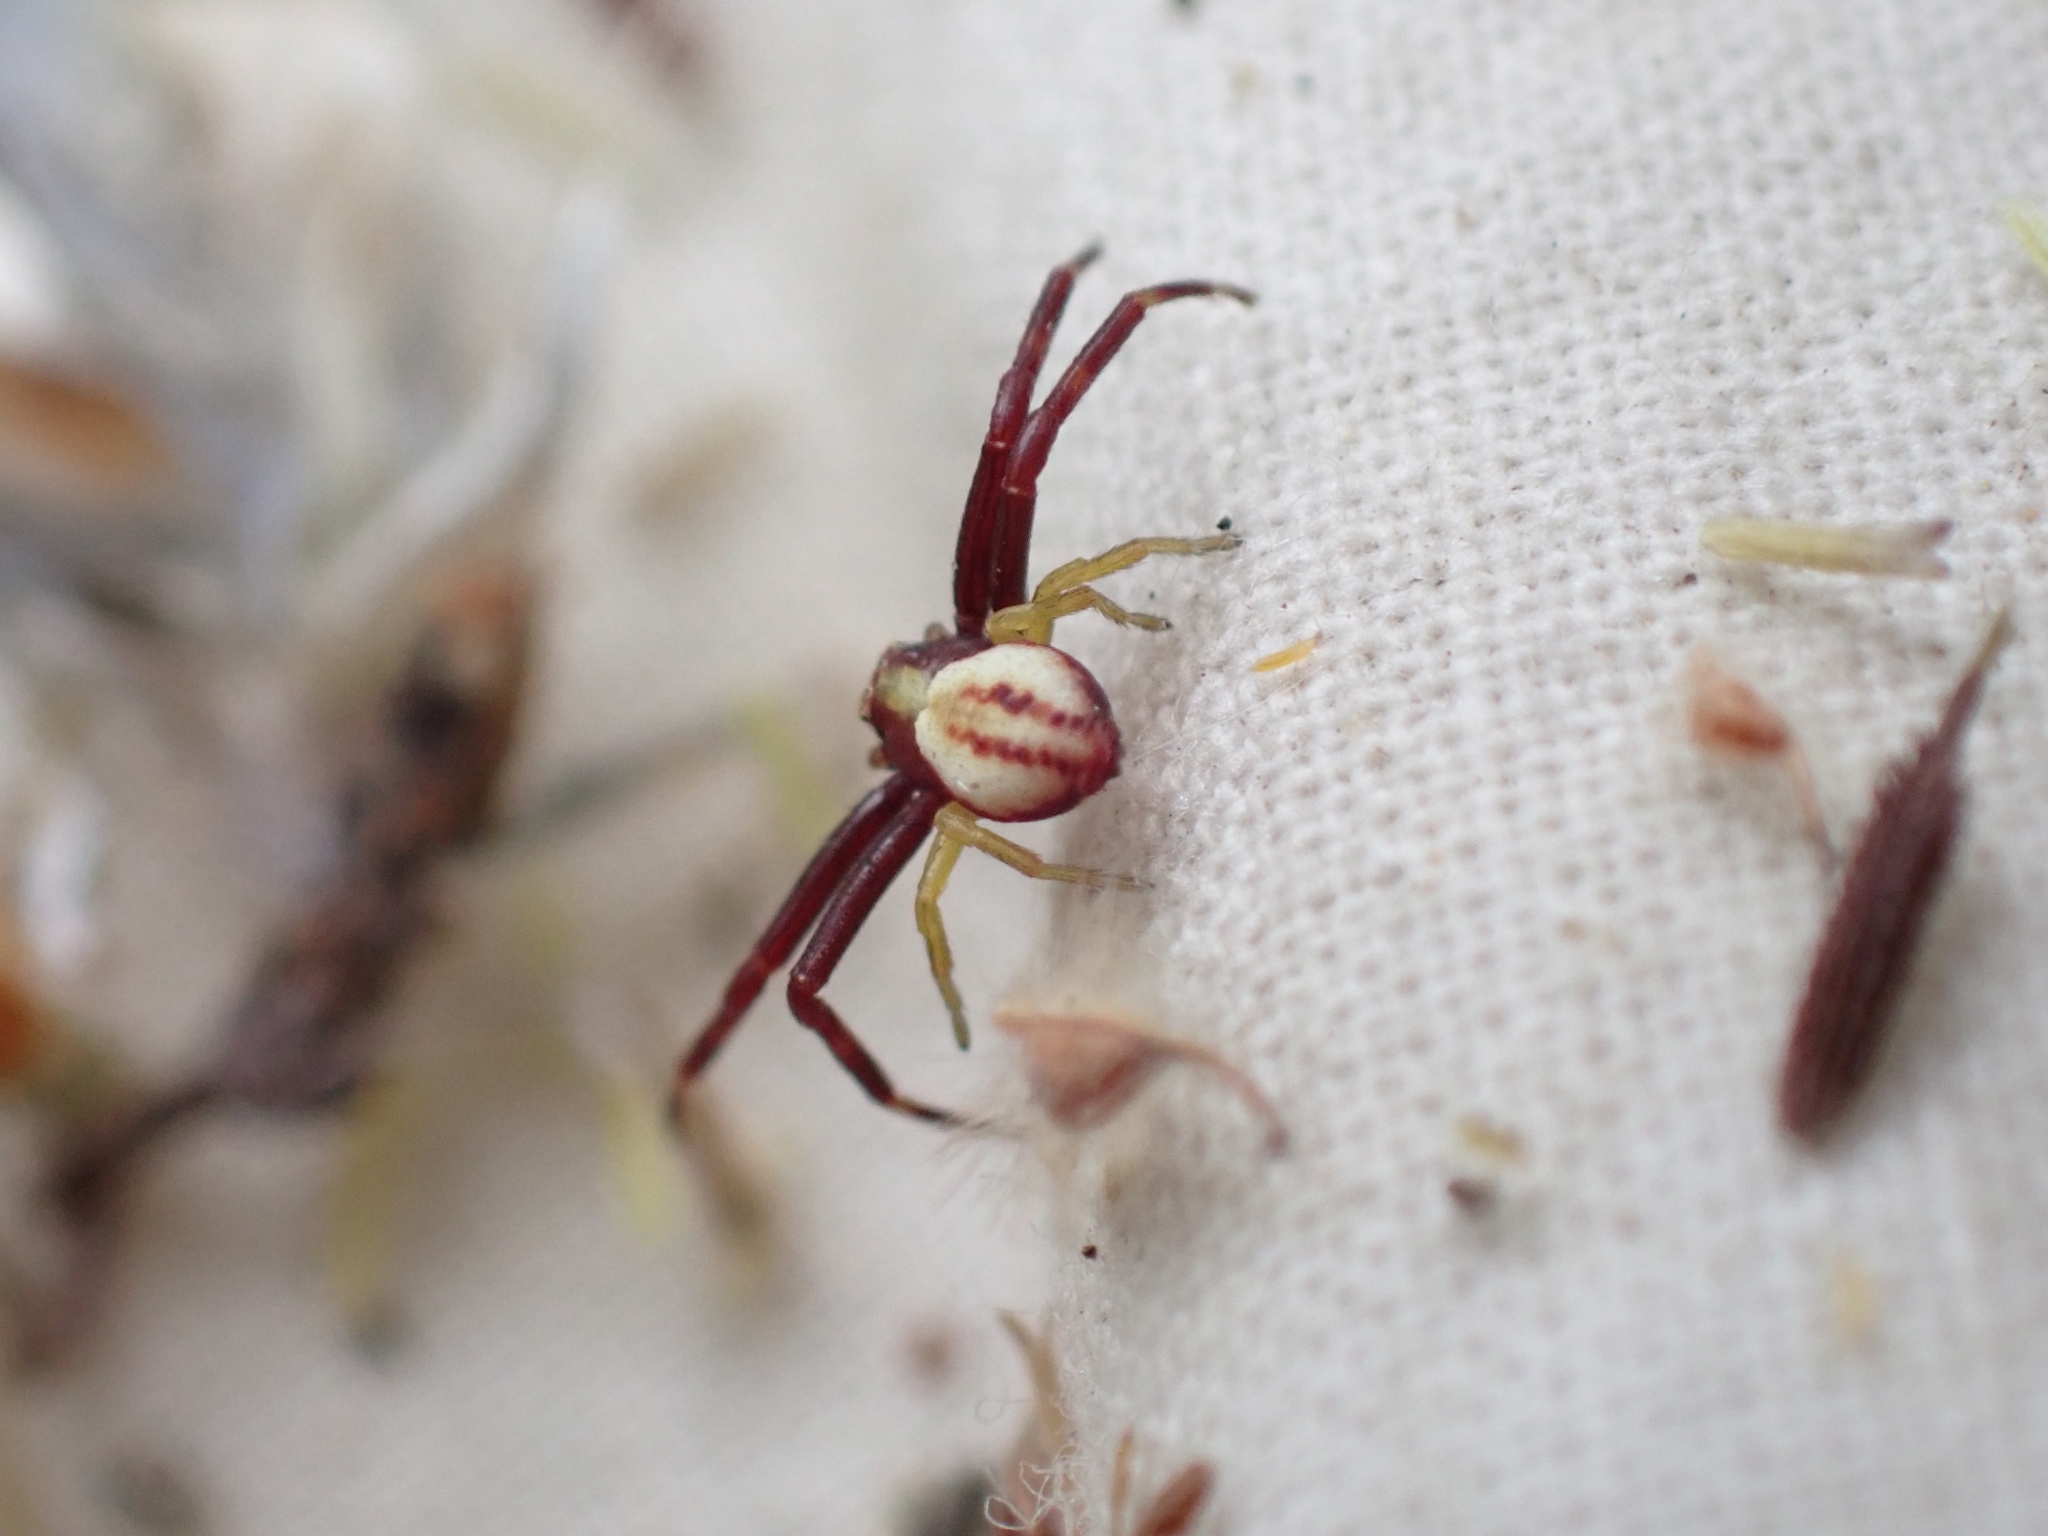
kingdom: Animalia
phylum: Arthropoda
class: Arachnida
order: Araneae
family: Thomisidae
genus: Misumena
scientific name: Misumena vatia
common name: Goldenrod crab spider
